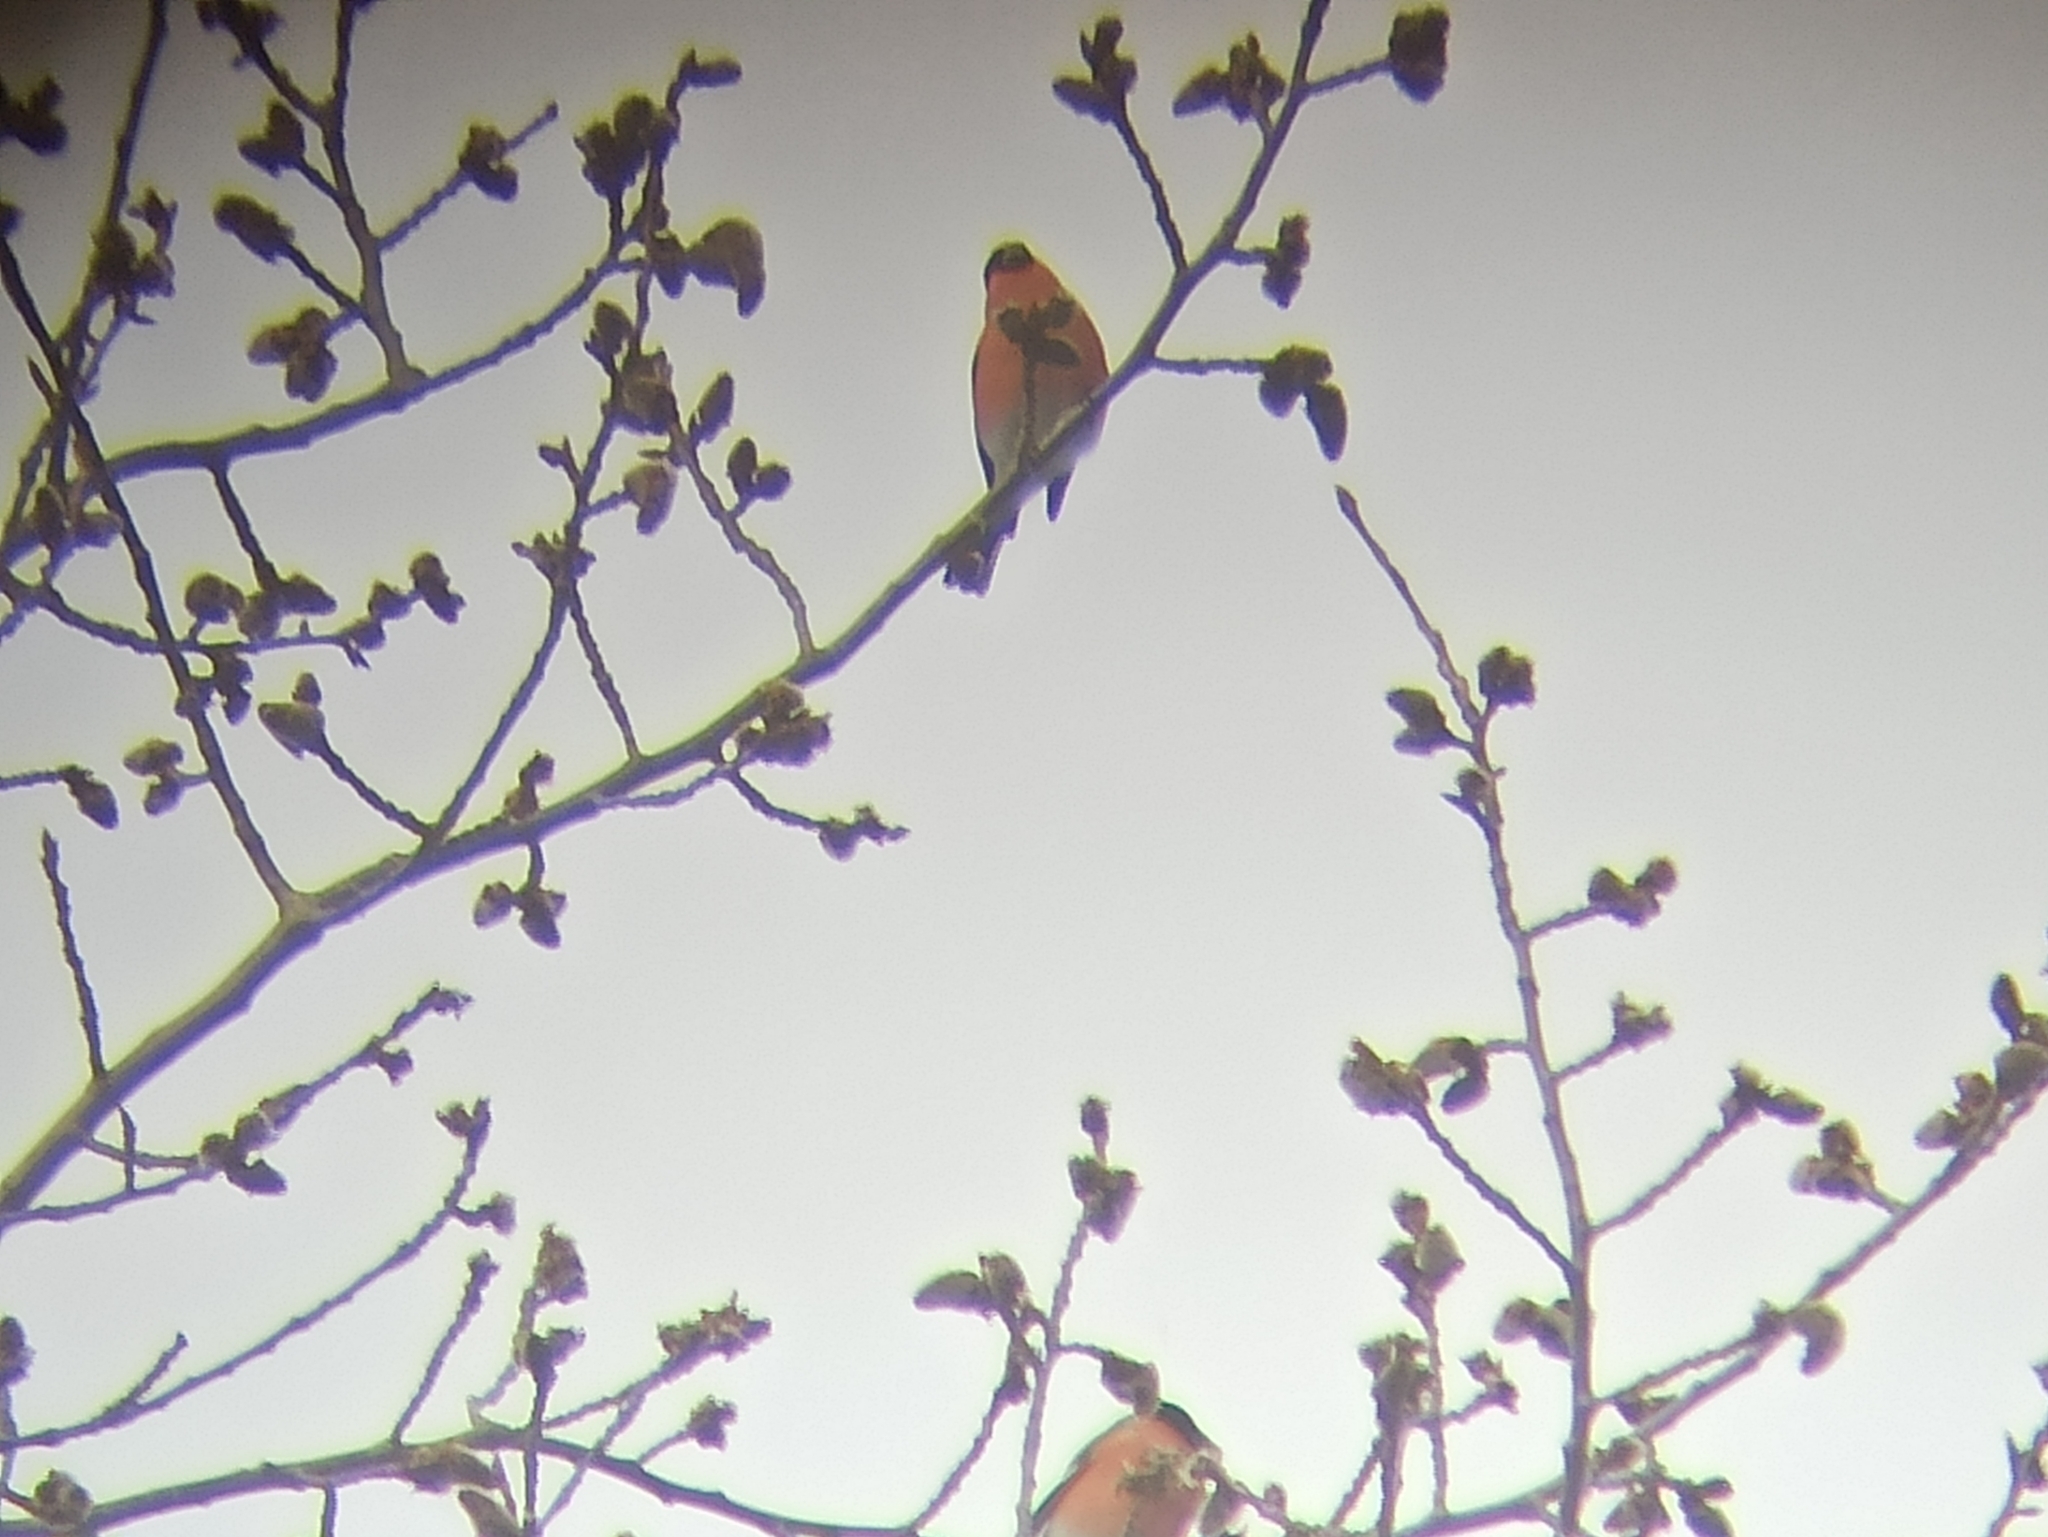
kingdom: Animalia
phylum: Chordata
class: Aves
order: Passeriformes
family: Fringillidae
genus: Pyrrhula
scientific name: Pyrrhula pyrrhula
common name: Eurasian bullfinch
